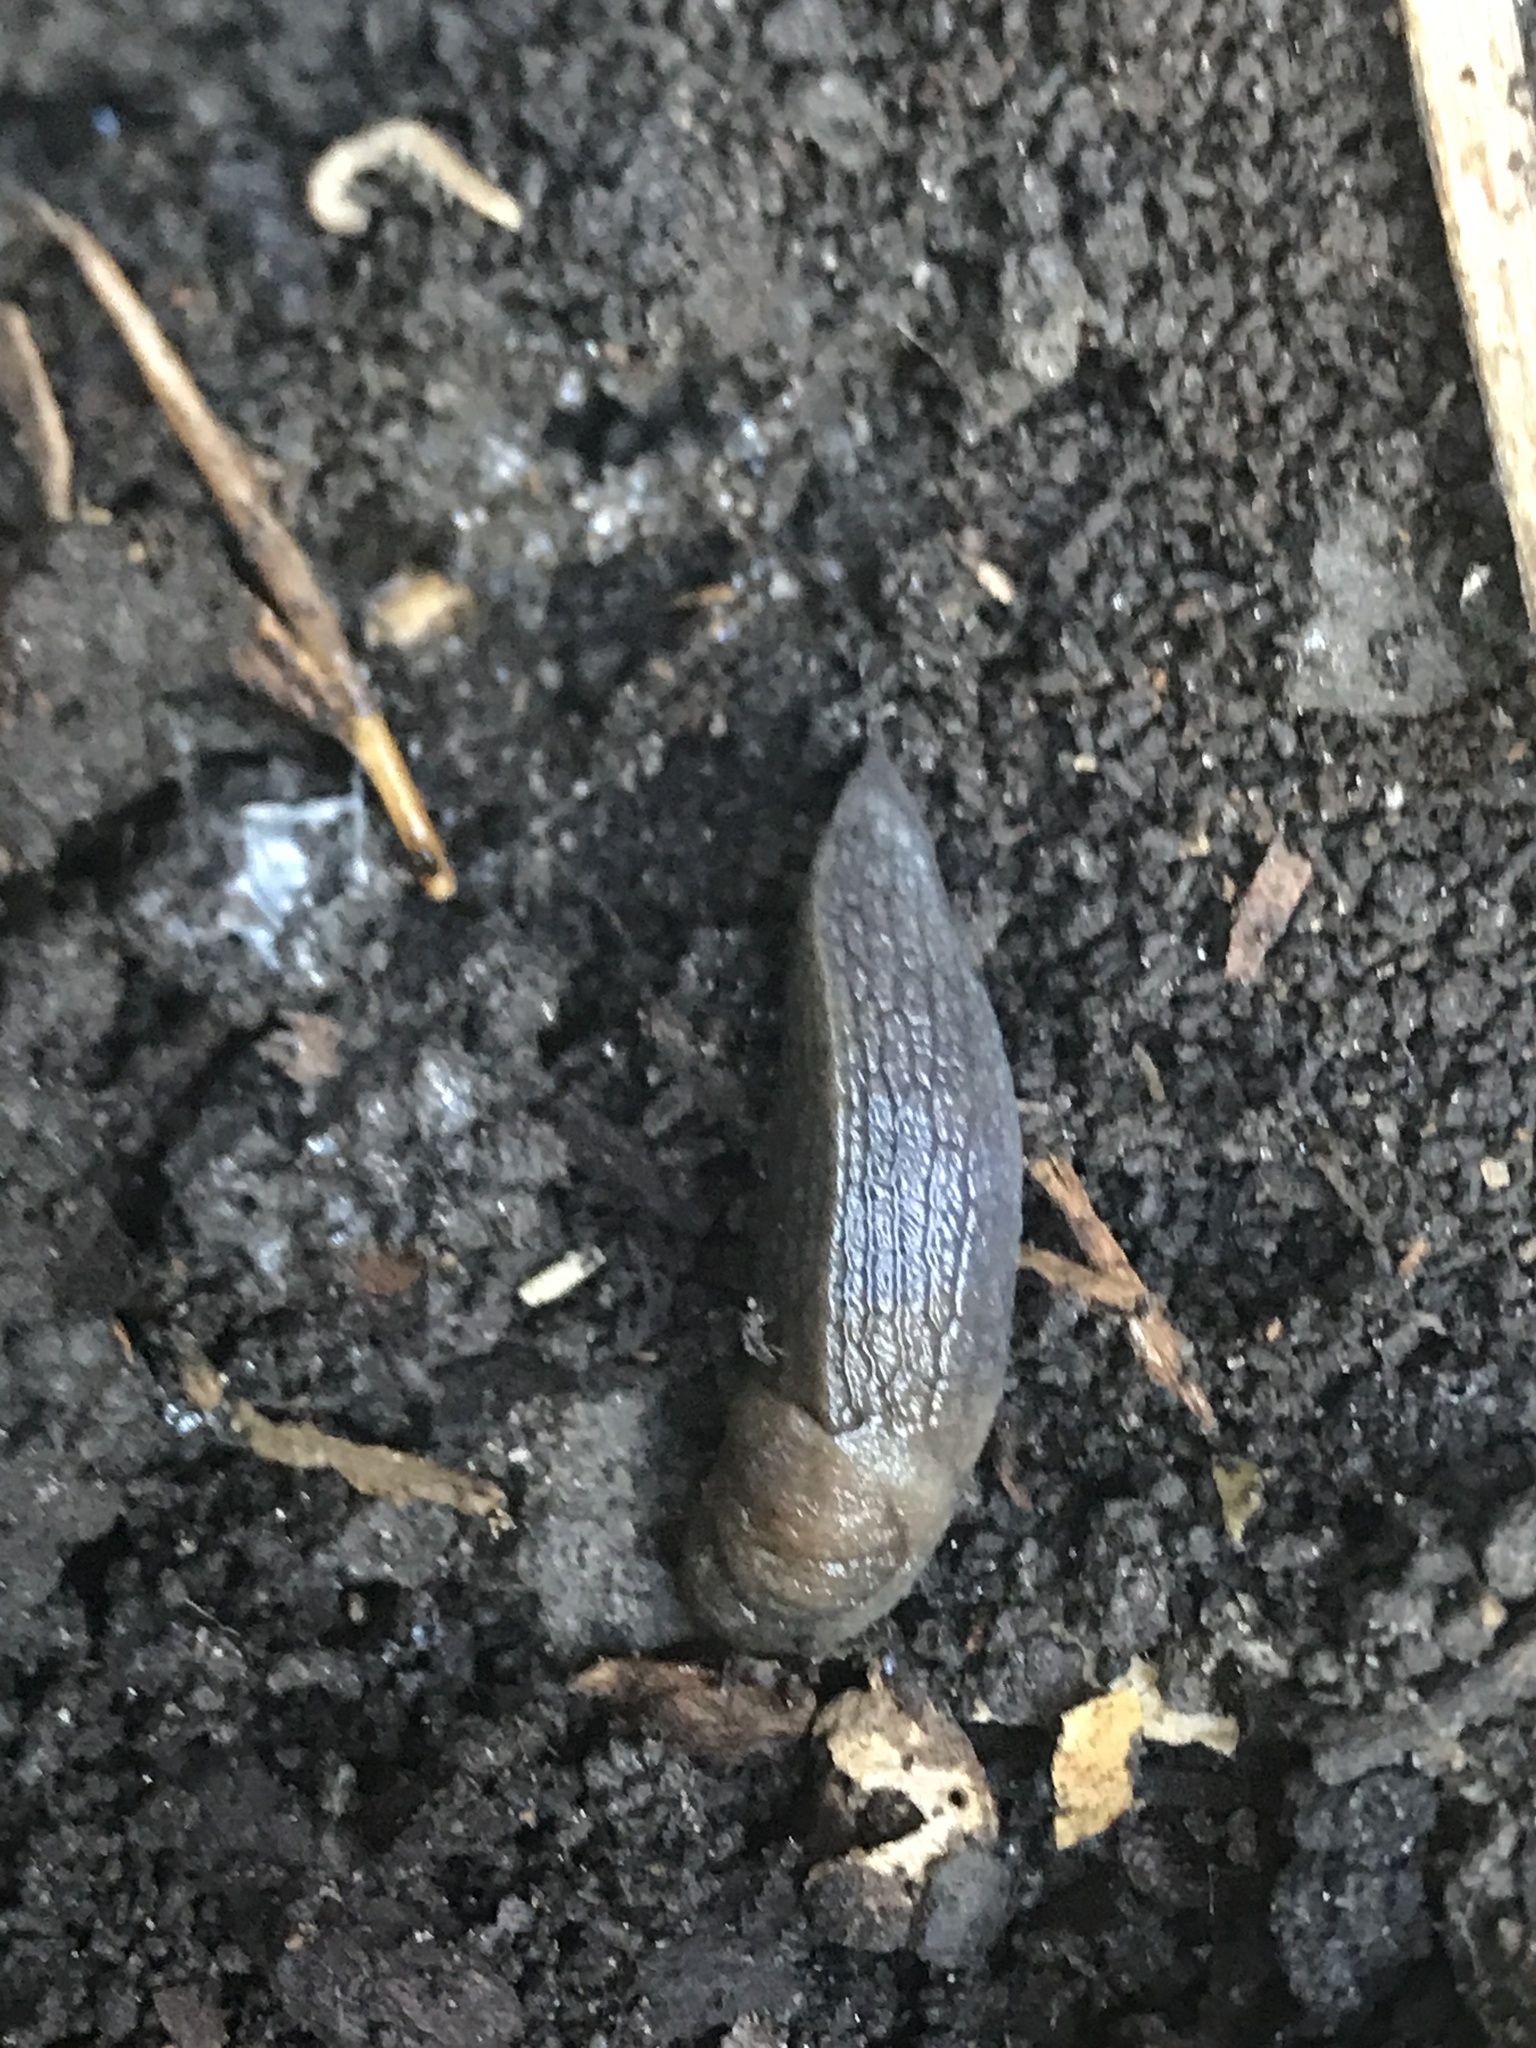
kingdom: Animalia
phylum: Mollusca
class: Gastropoda
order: Stylommatophora
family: Milacidae
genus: Milax
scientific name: Milax gagates
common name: Greenhouse slug
